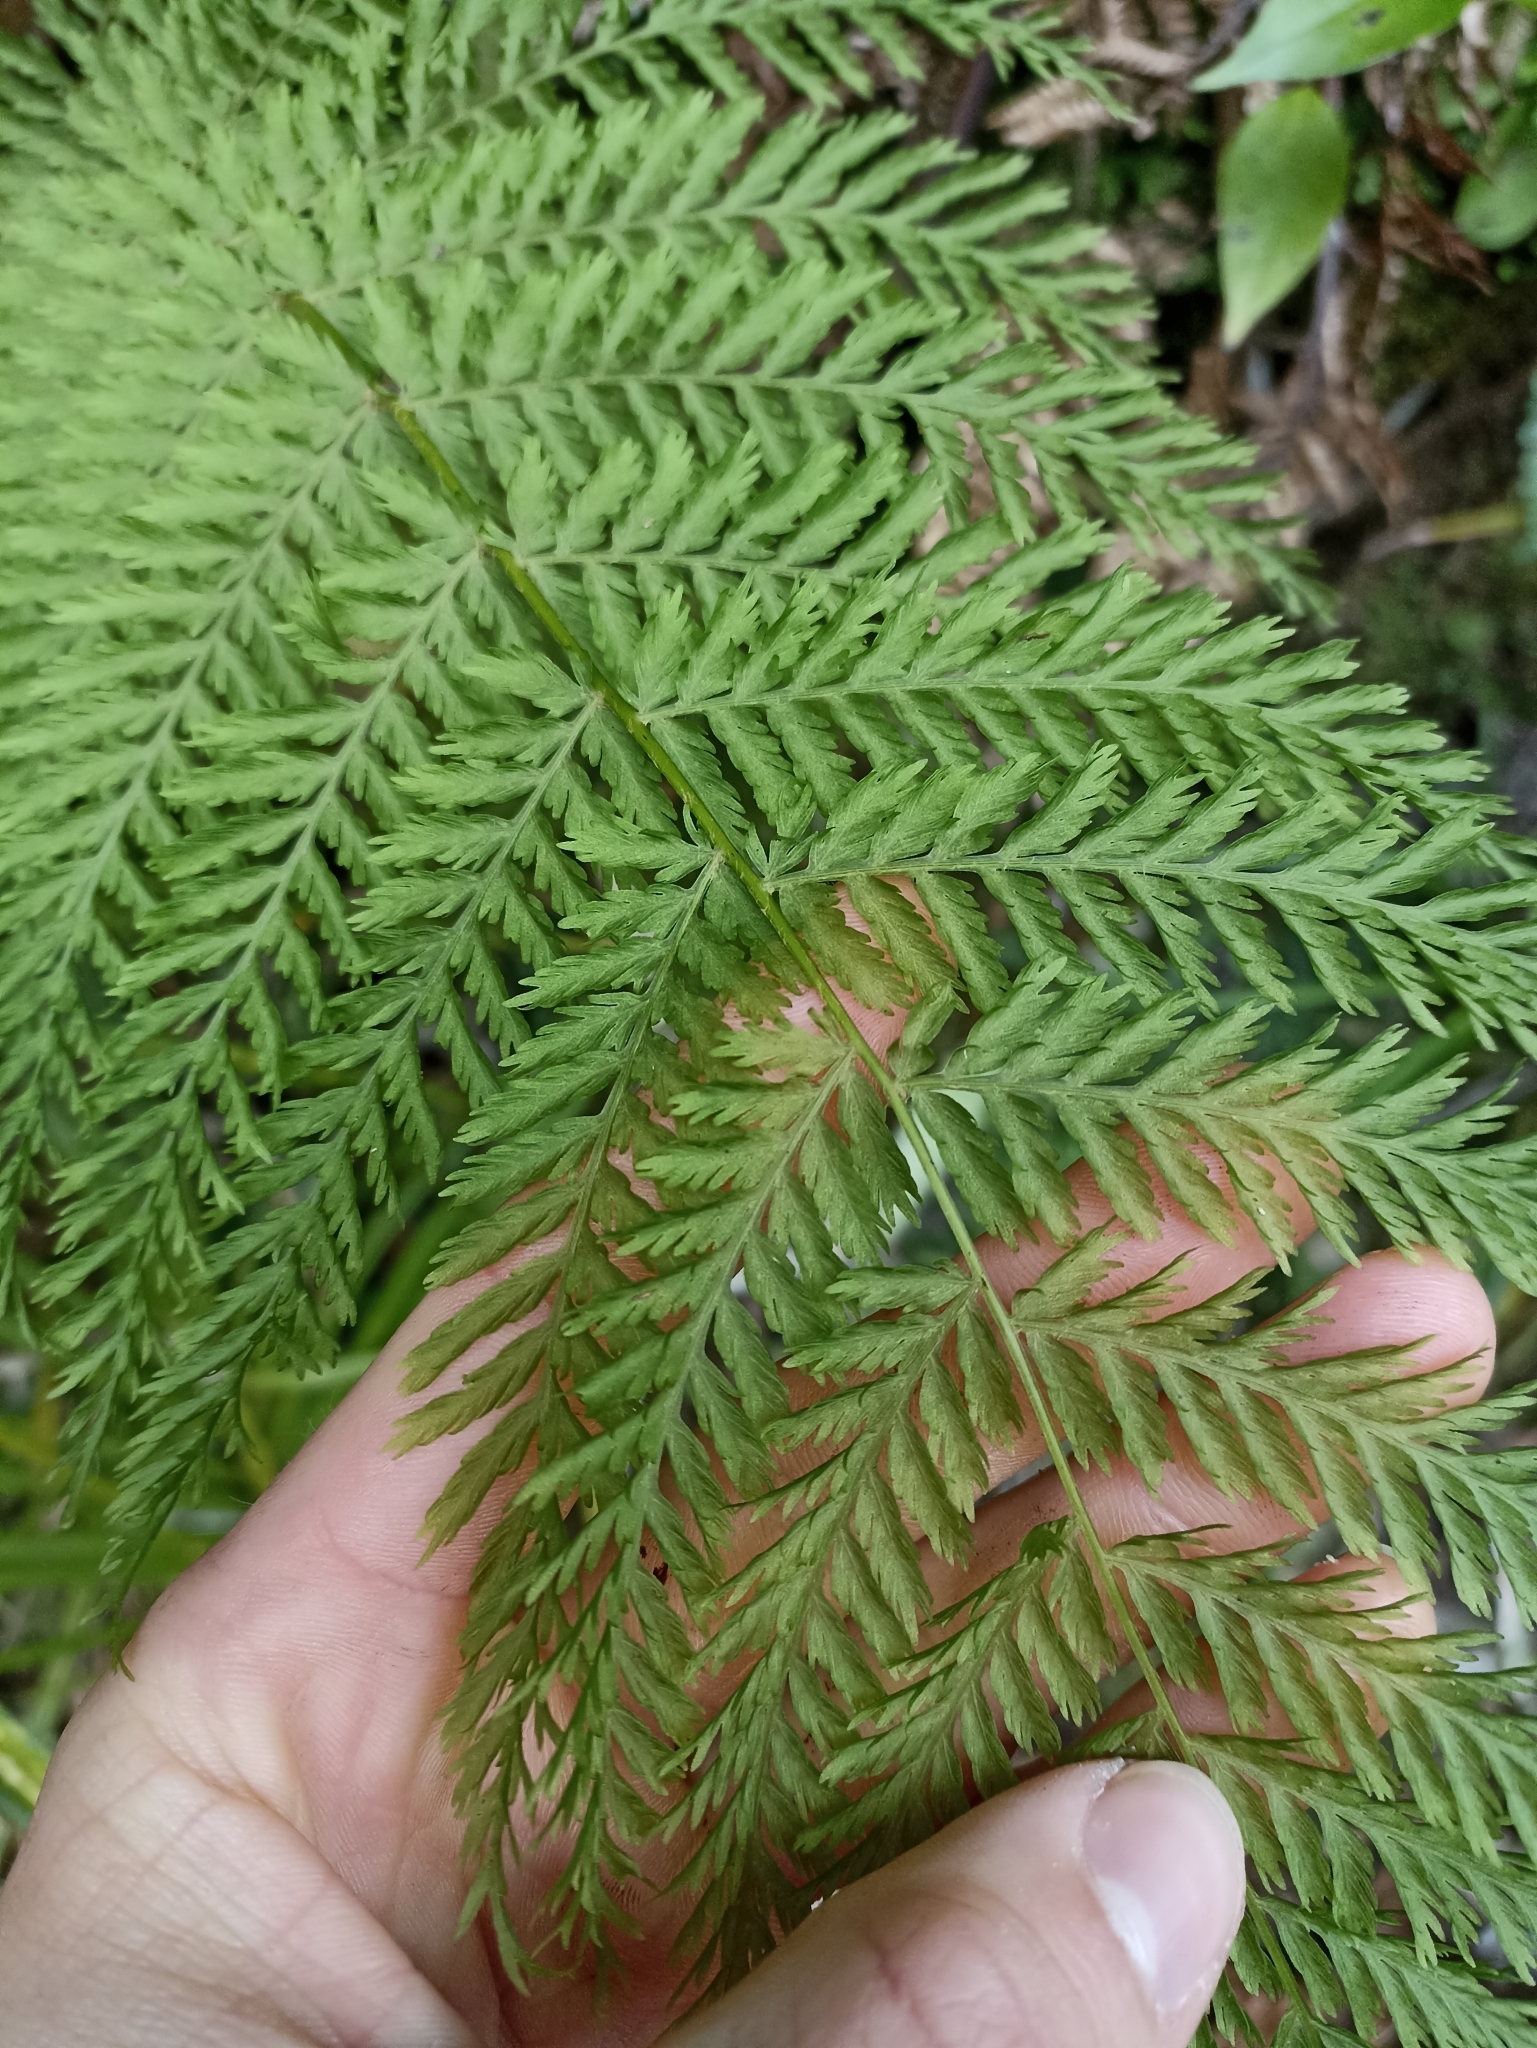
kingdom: Plantae
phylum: Tracheophyta
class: Polypodiopsida
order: Osmundales
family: Osmundaceae
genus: Leptopteris
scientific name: Leptopteris hymenophylloides
